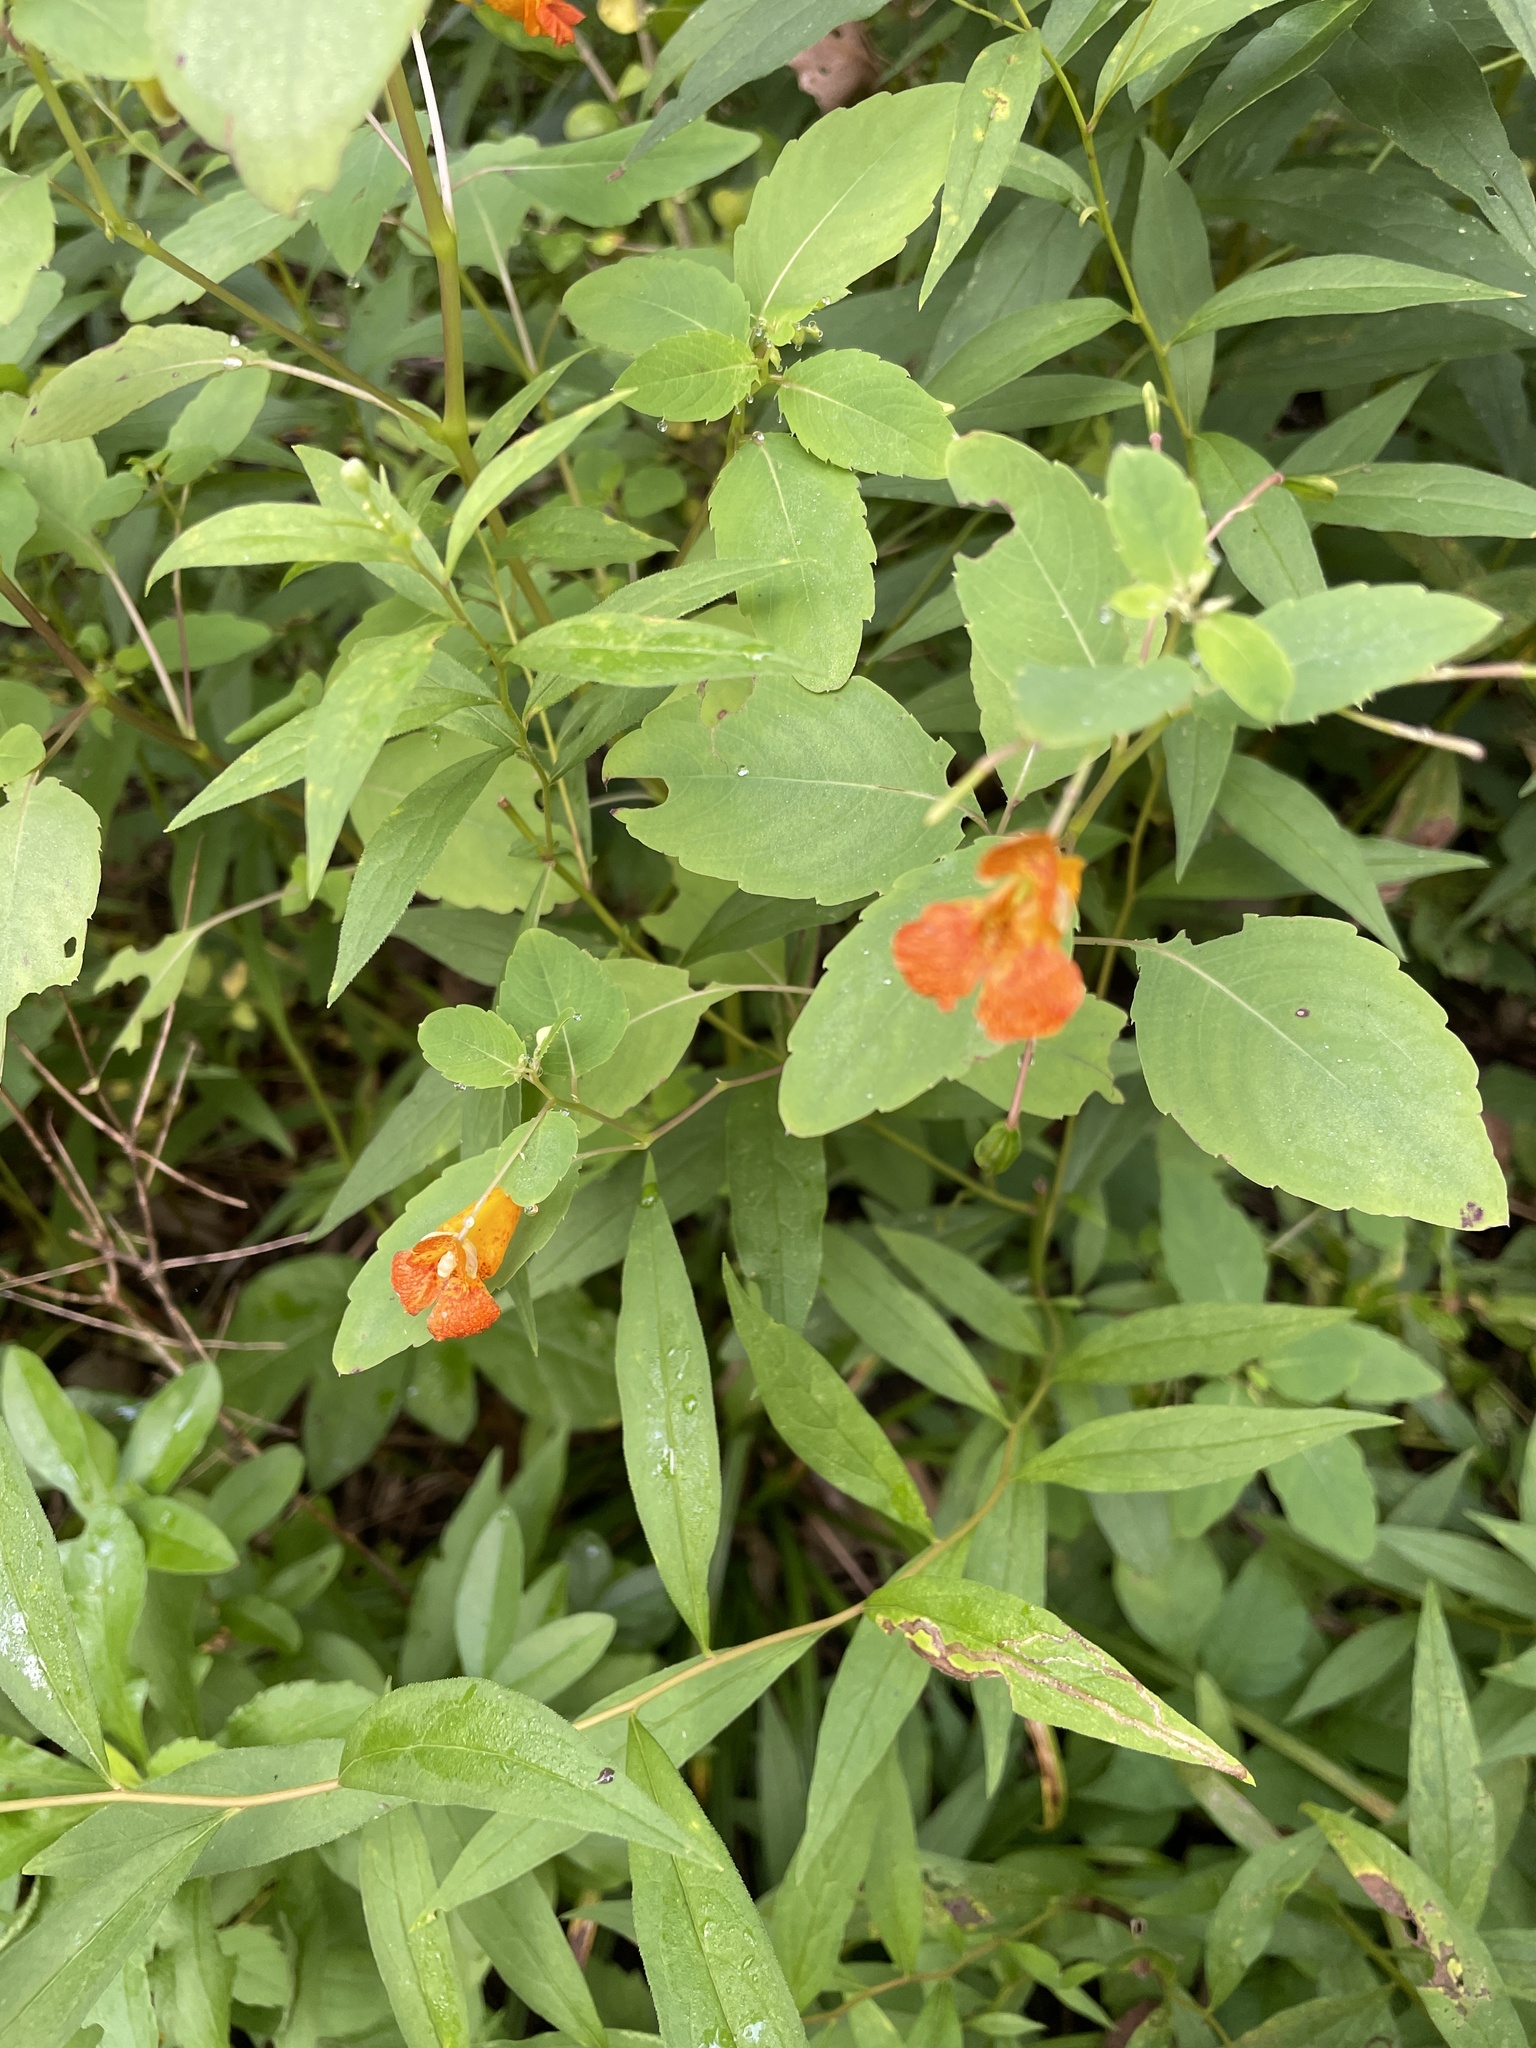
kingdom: Plantae
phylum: Tracheophyta
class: Magnoliopsida
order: Ericales
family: Balsaminaceae
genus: Impatiens
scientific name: Impatiens capensis
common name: Orange balsam
